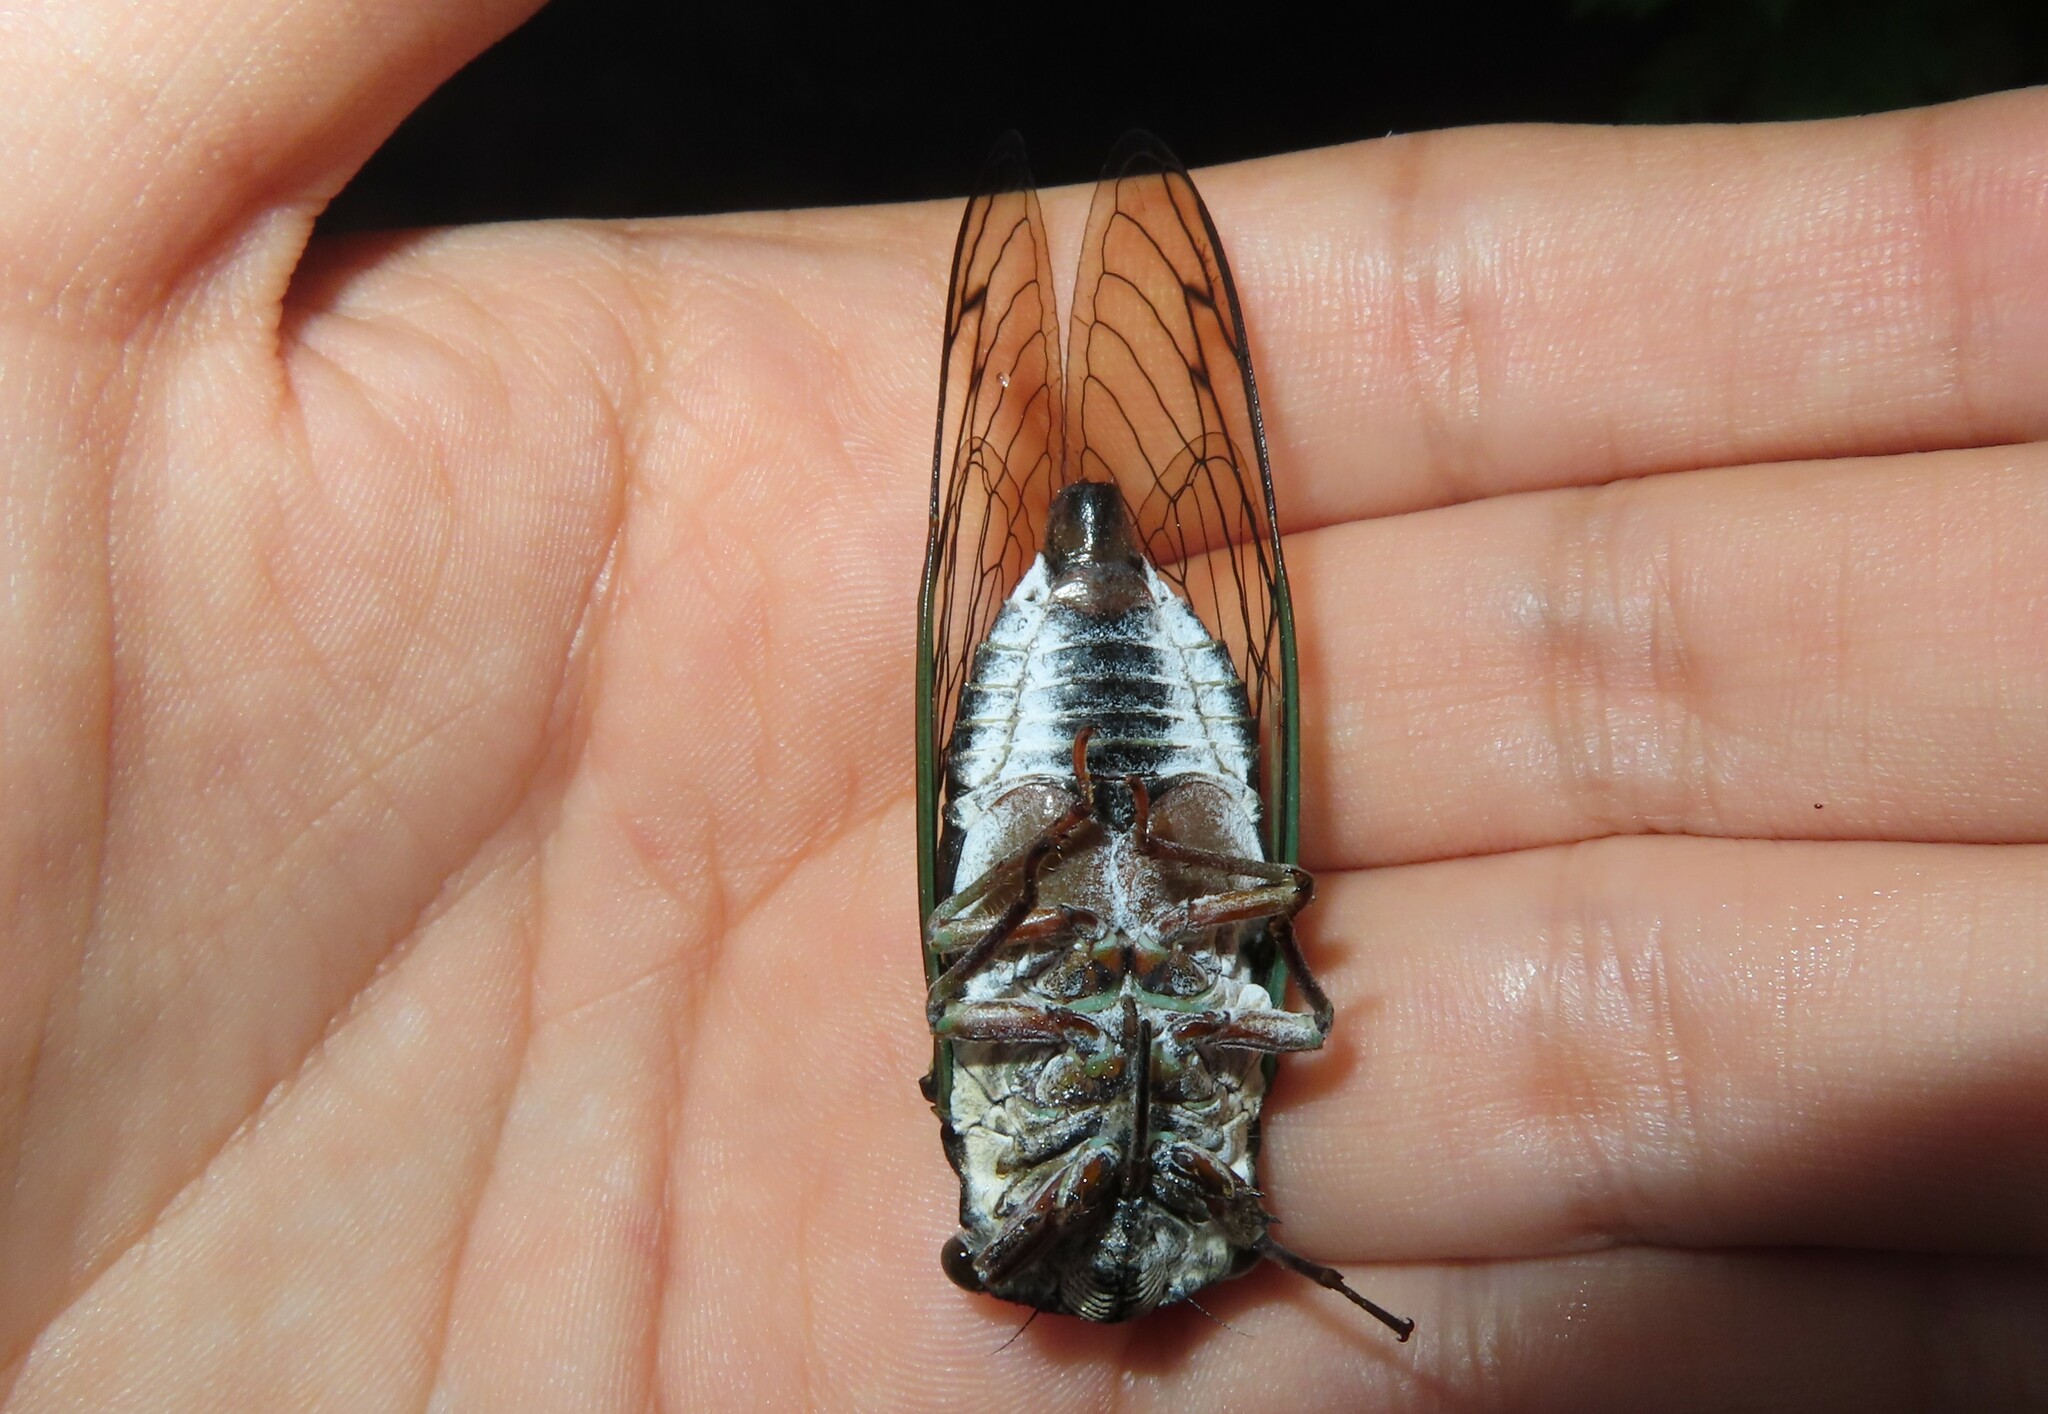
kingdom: Animalia
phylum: Arthropoda
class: Insecta
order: Hemiptera
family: Cicadidae
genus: Neotibicen
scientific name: Neotibicen lyricen
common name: Lyric cicada
